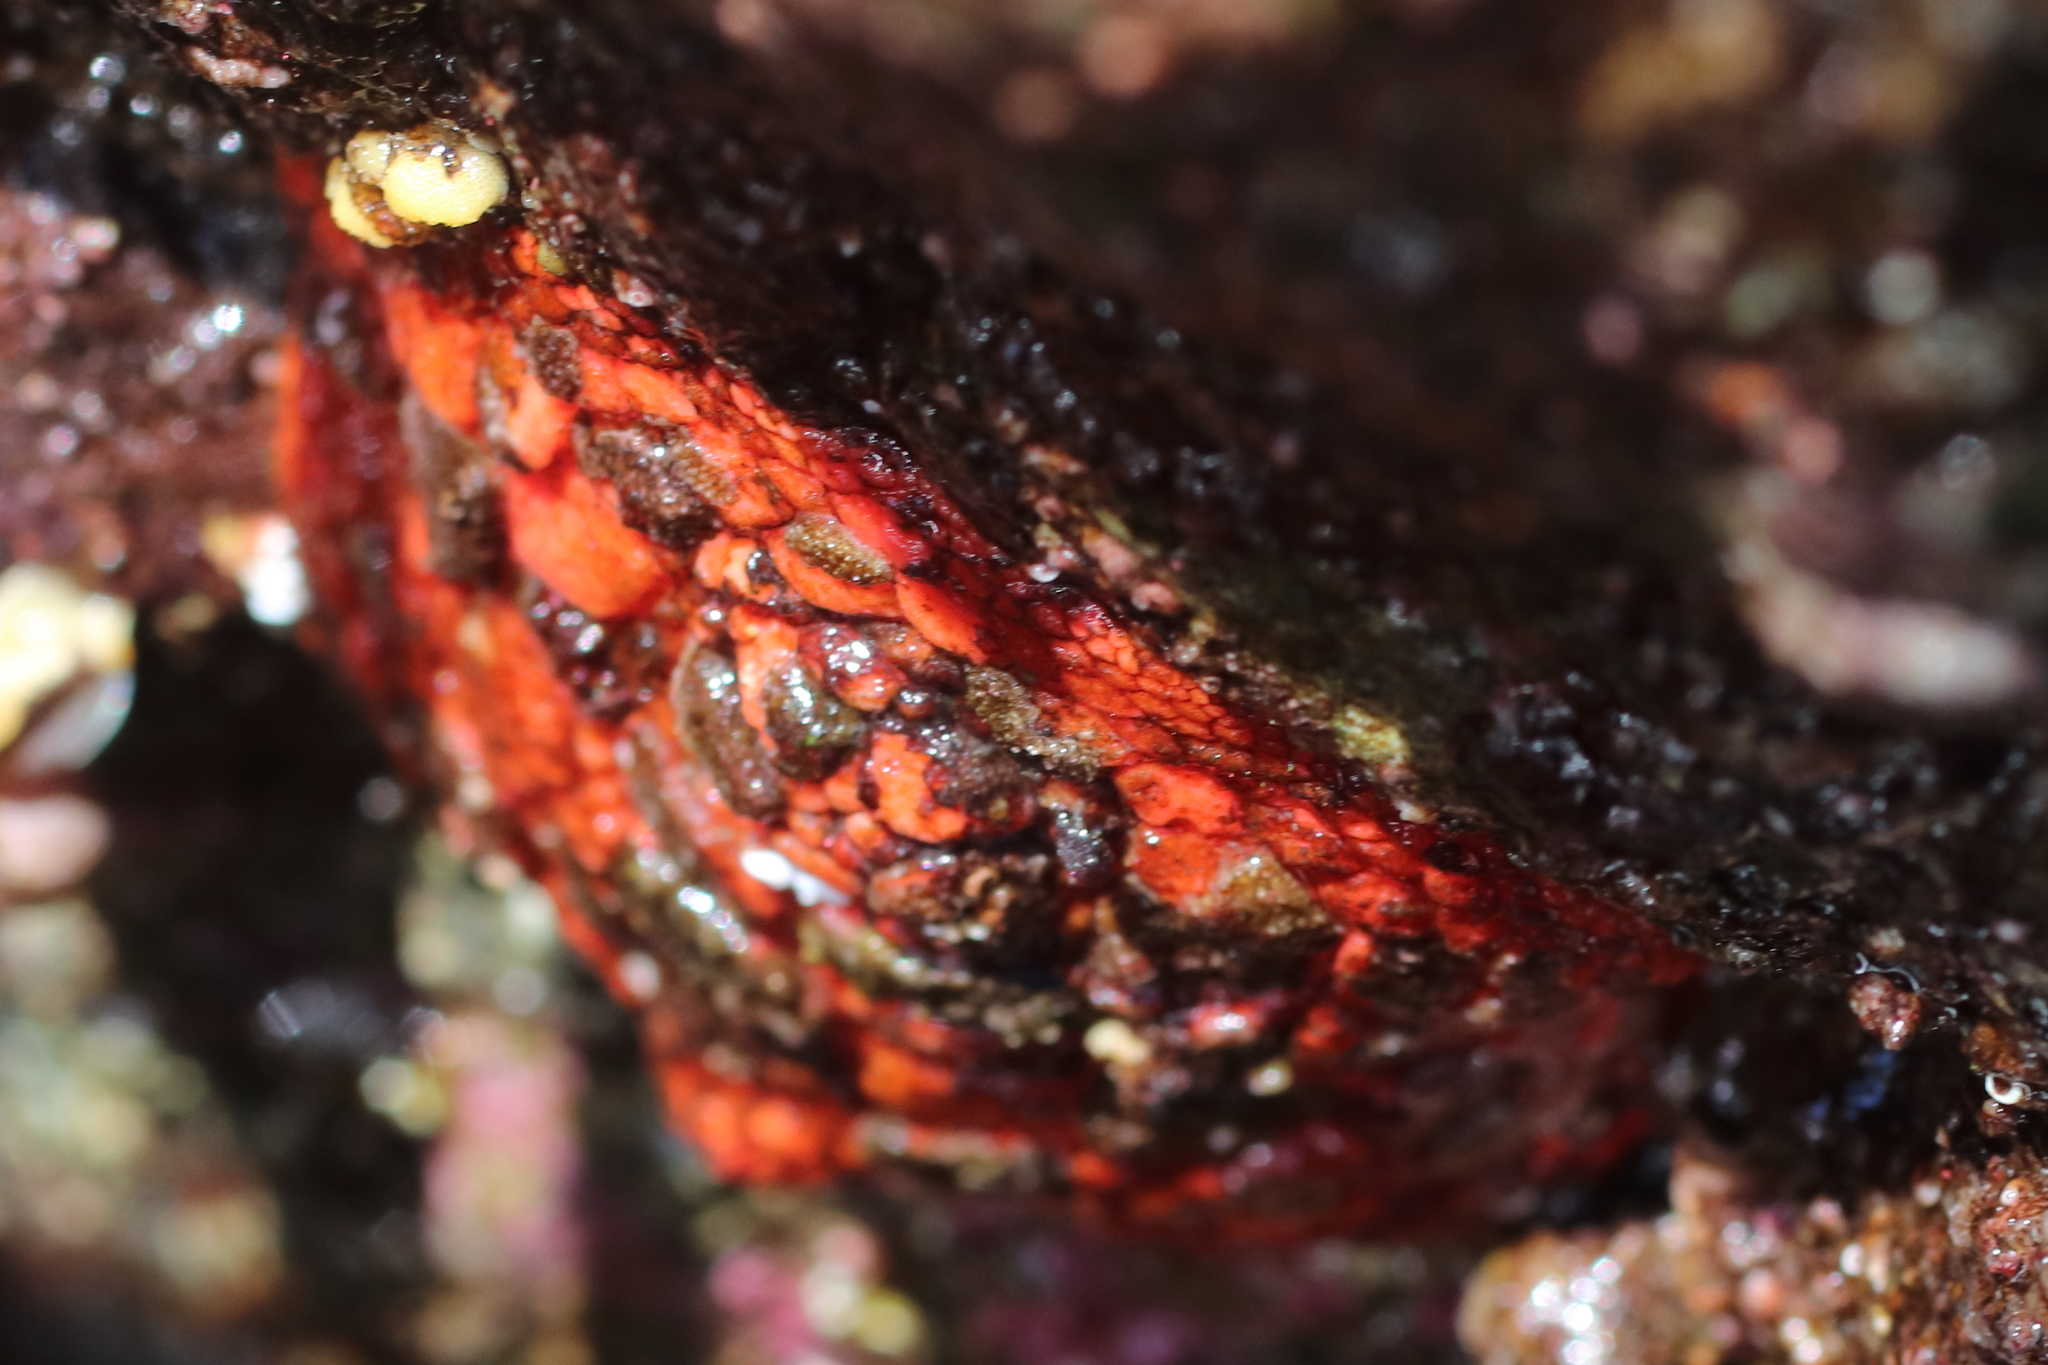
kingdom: Animalia
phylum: Echinodermata
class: Holothuroidea
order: Dendrochirotida
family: Psolidae
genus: Psolus
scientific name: Psolus chitonoides
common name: Creeping pedal sea cucumber
